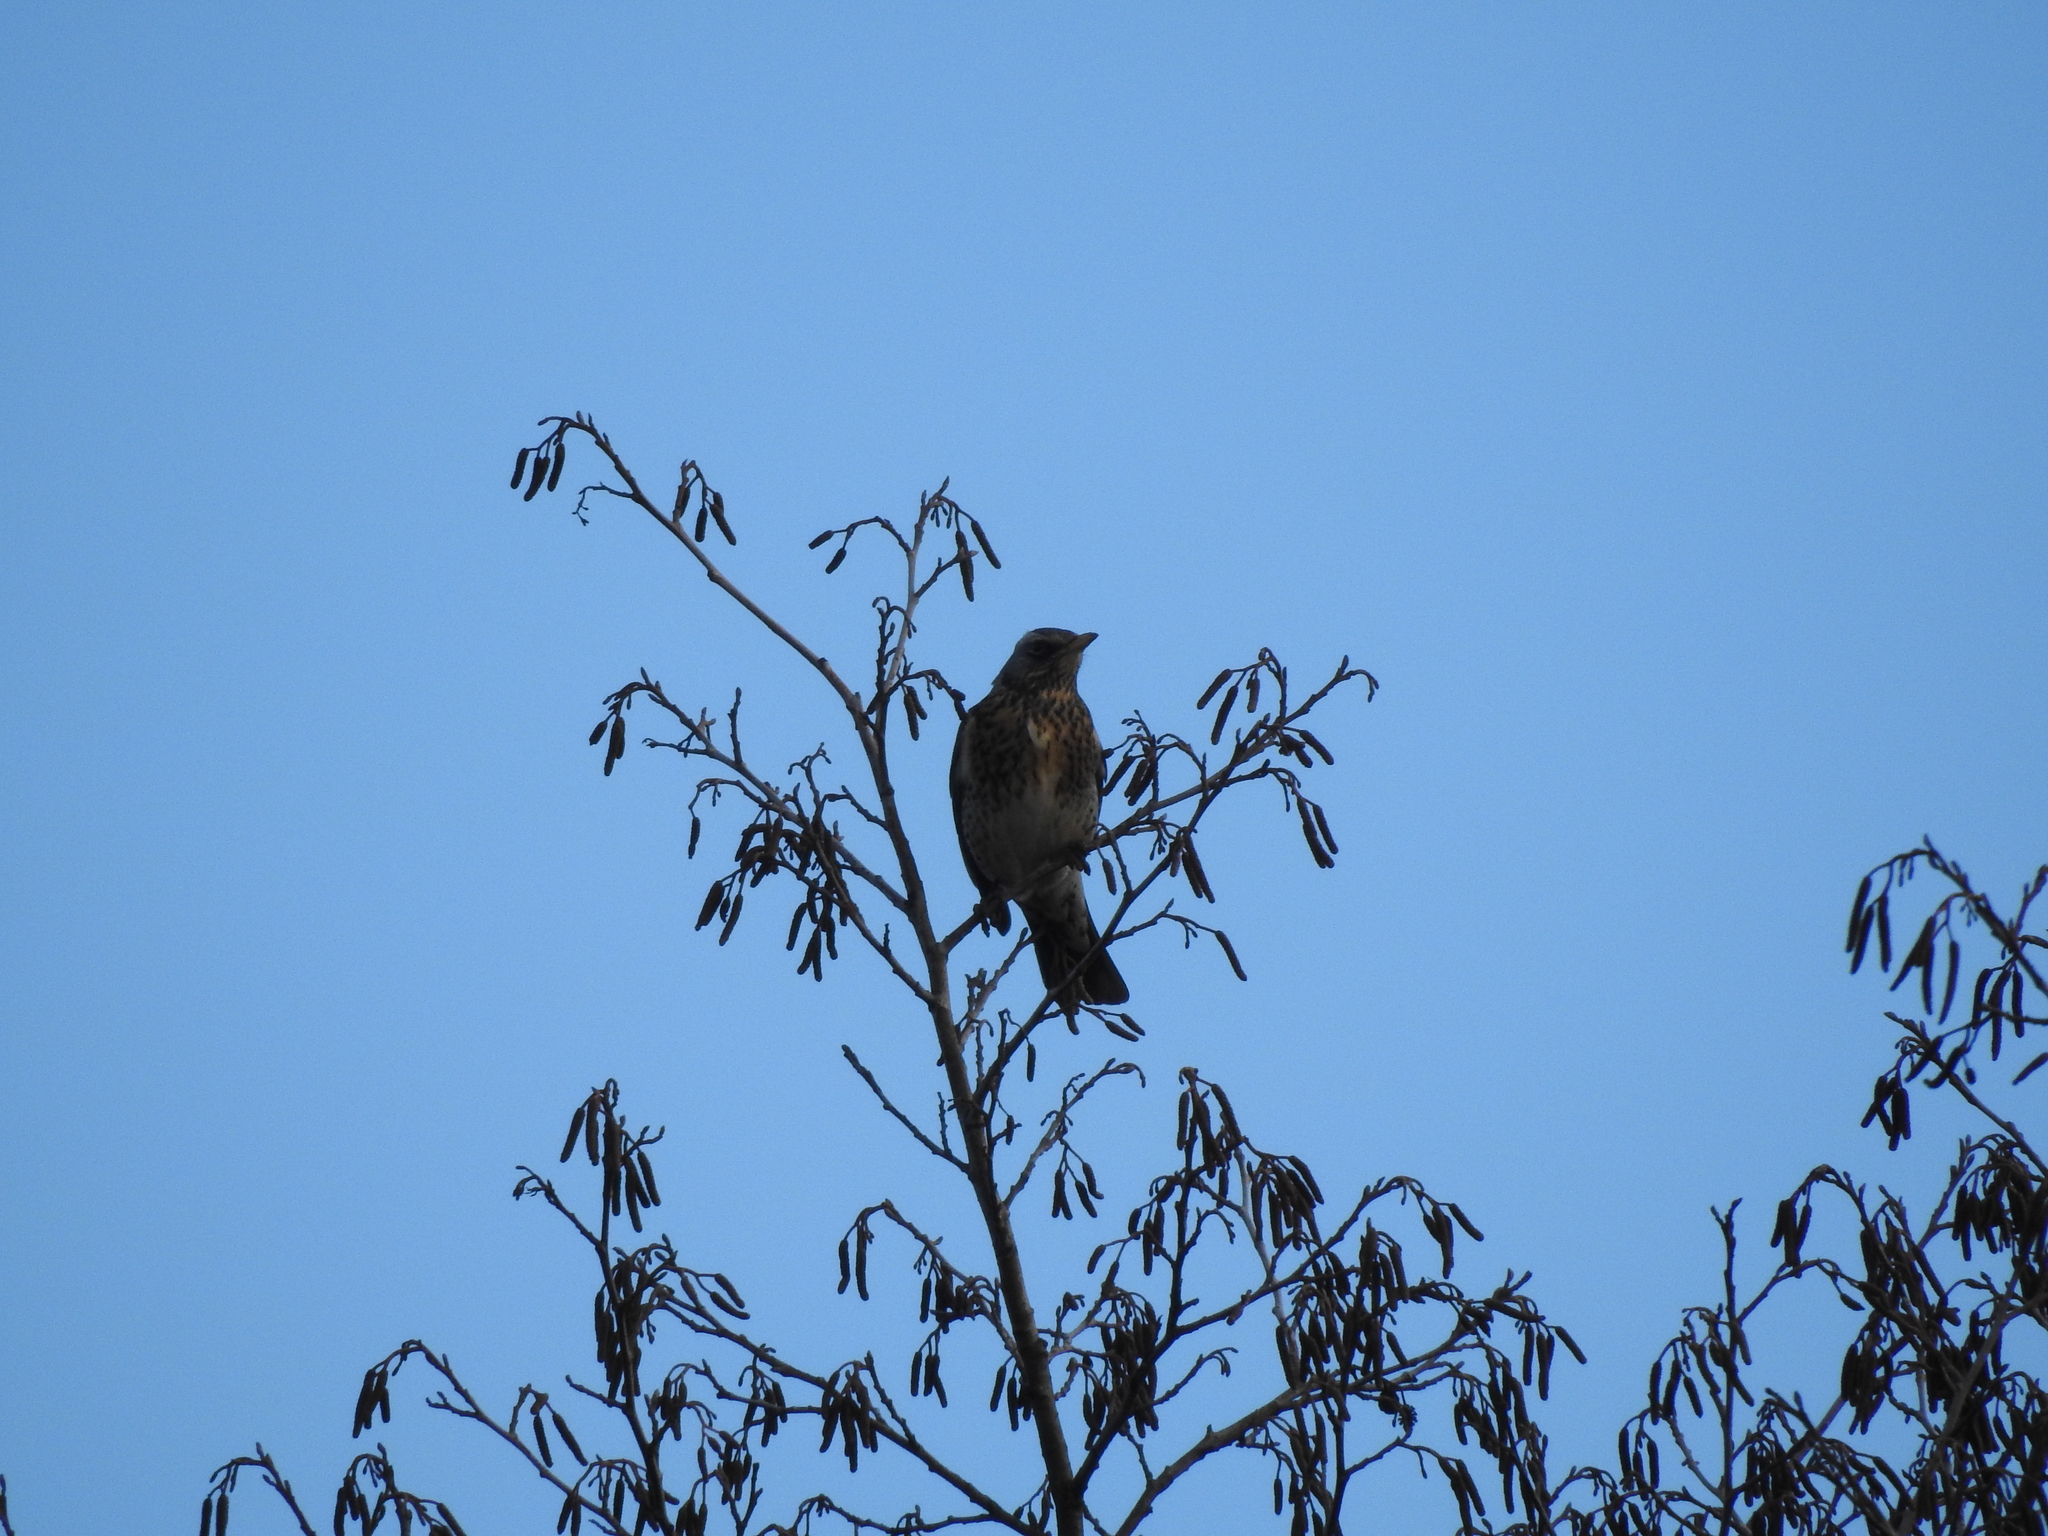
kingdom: Animalia
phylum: Chordata
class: Aves
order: Passeriformes
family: Turdidae
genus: Turdus
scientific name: Turdus pilaris
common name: Fieldfare
